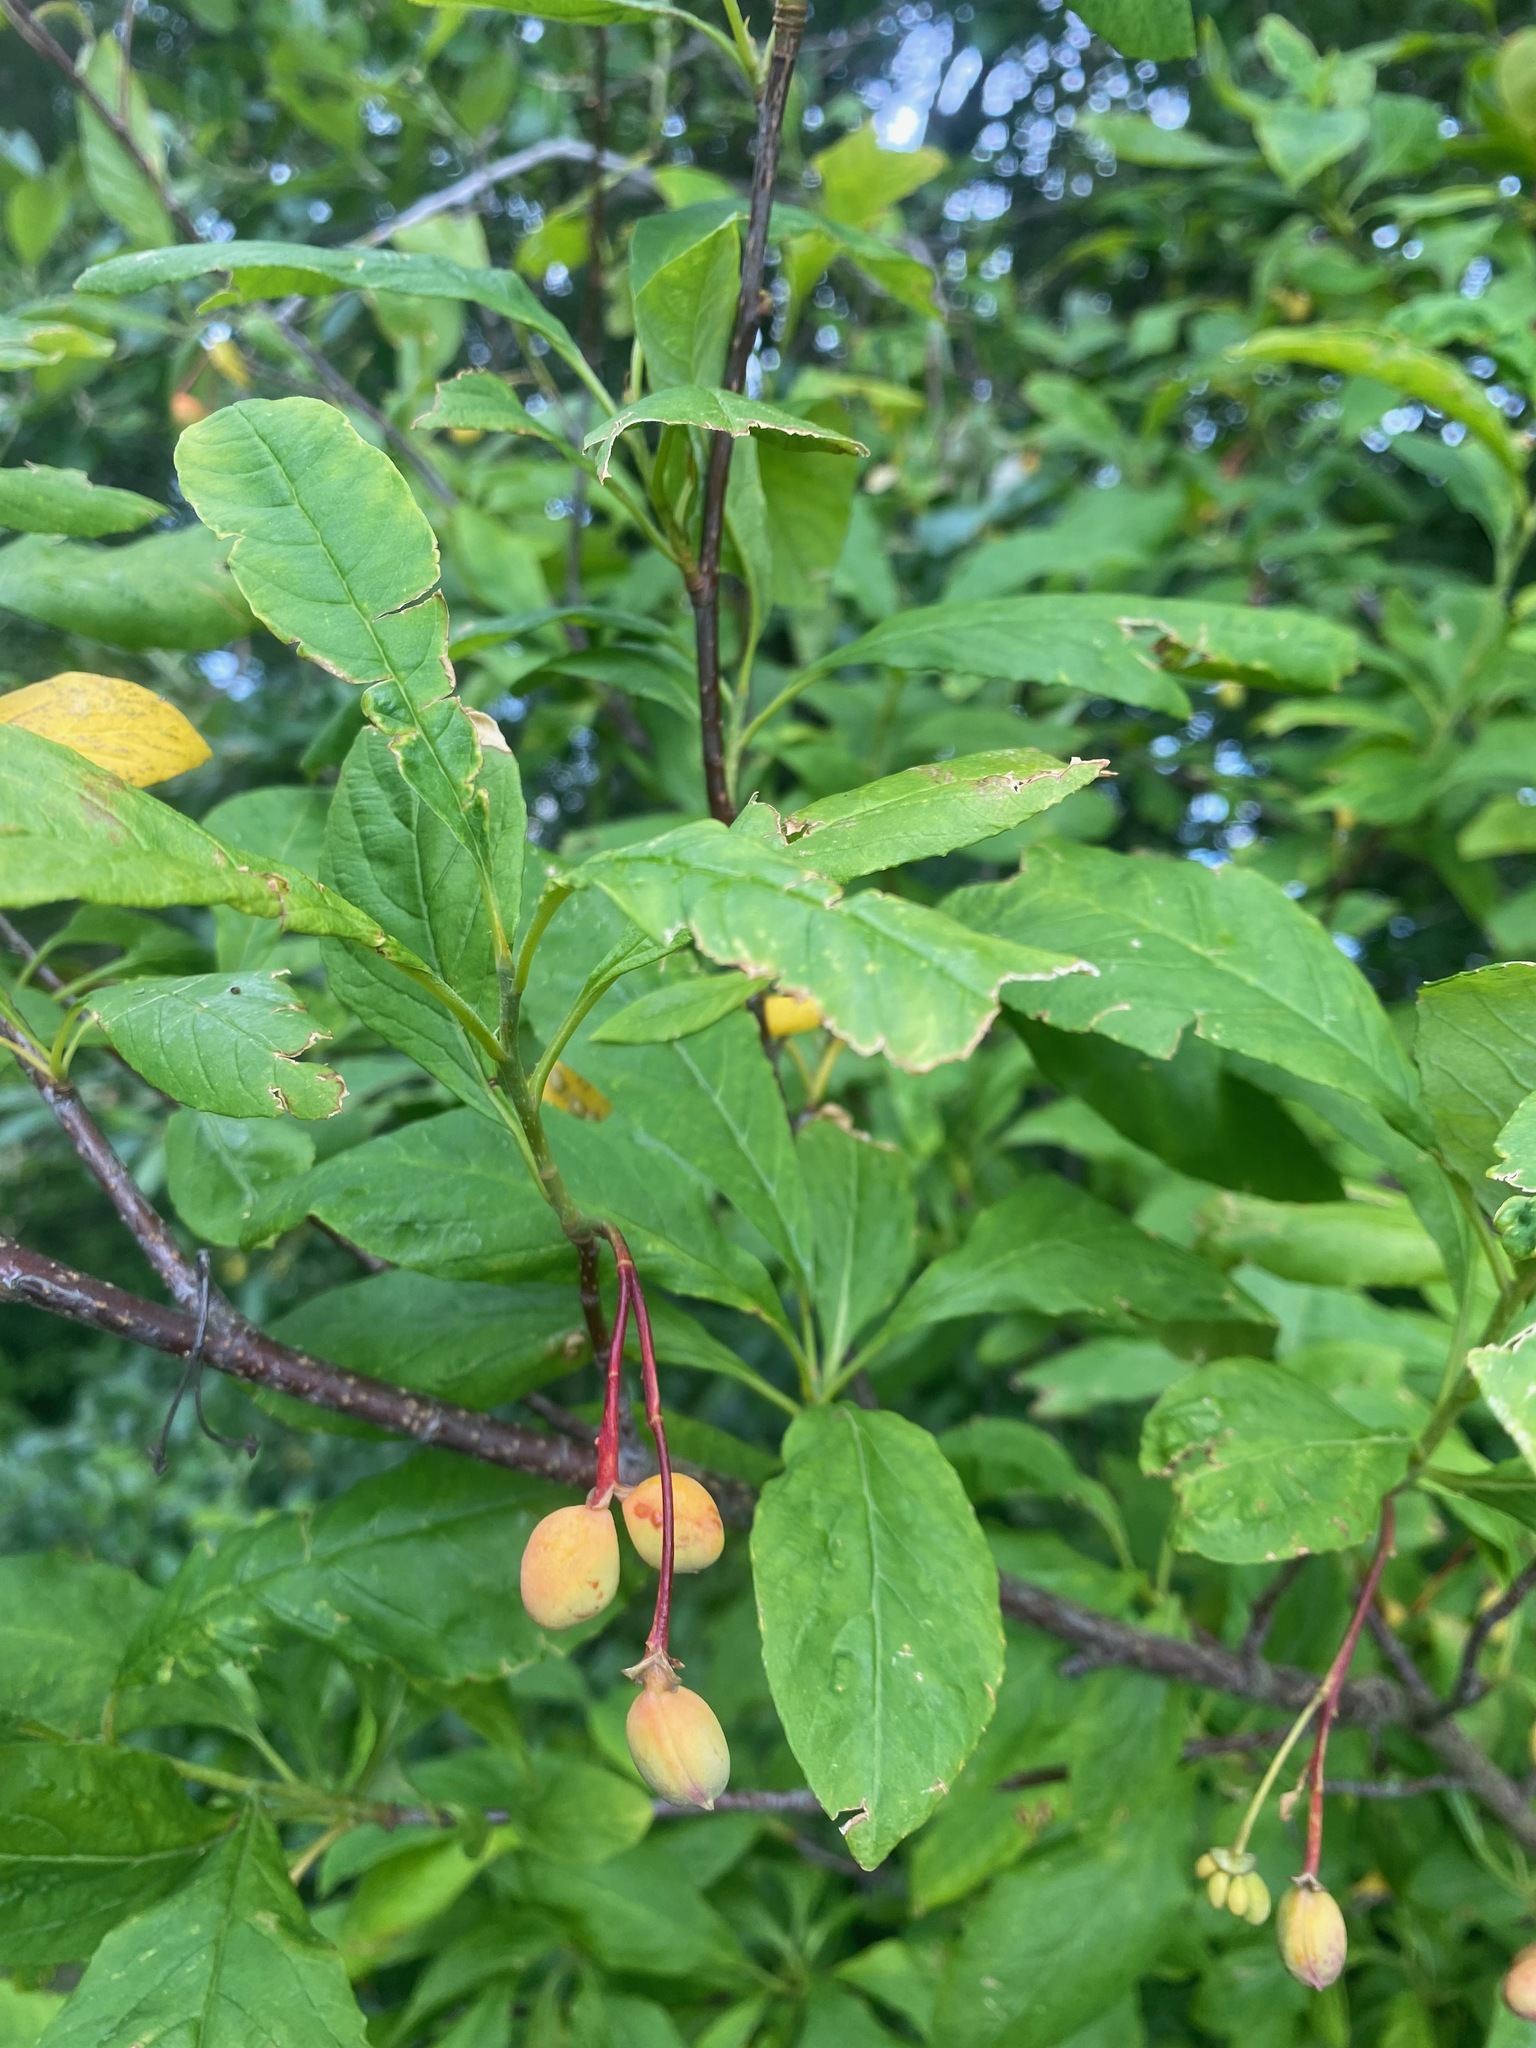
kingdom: Plantae
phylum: Tracheophyta
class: Magnoliopsida
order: Rosales
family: Rosaceae
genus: Oemleria
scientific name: Oemleria cerasiformis
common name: Osoberry
